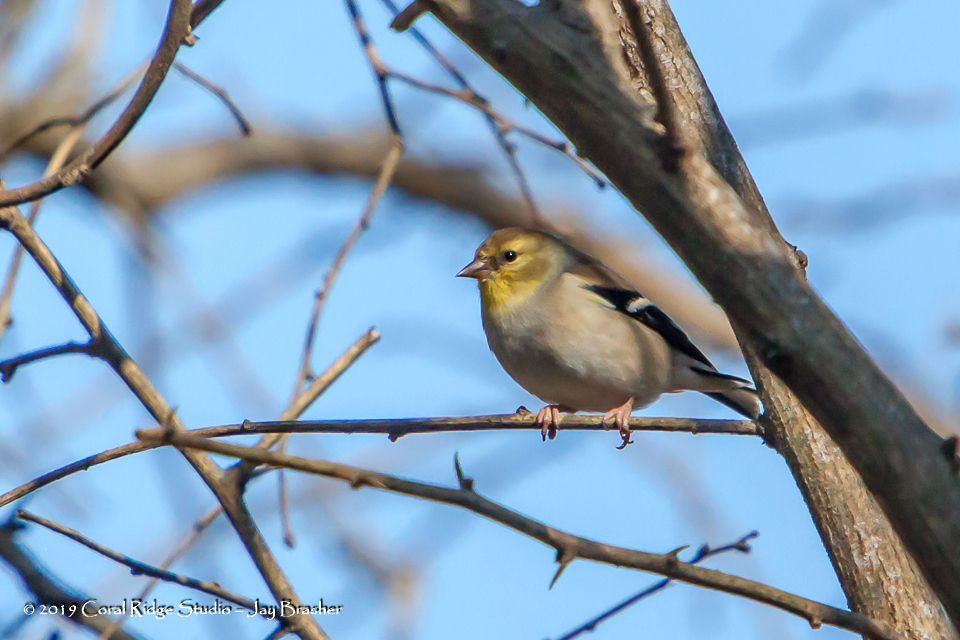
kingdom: Animalia
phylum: Chordata
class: Aves
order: Passeriformes
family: Fringillidae
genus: Spinus
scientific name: Spinus tristis
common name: American goldfinch
